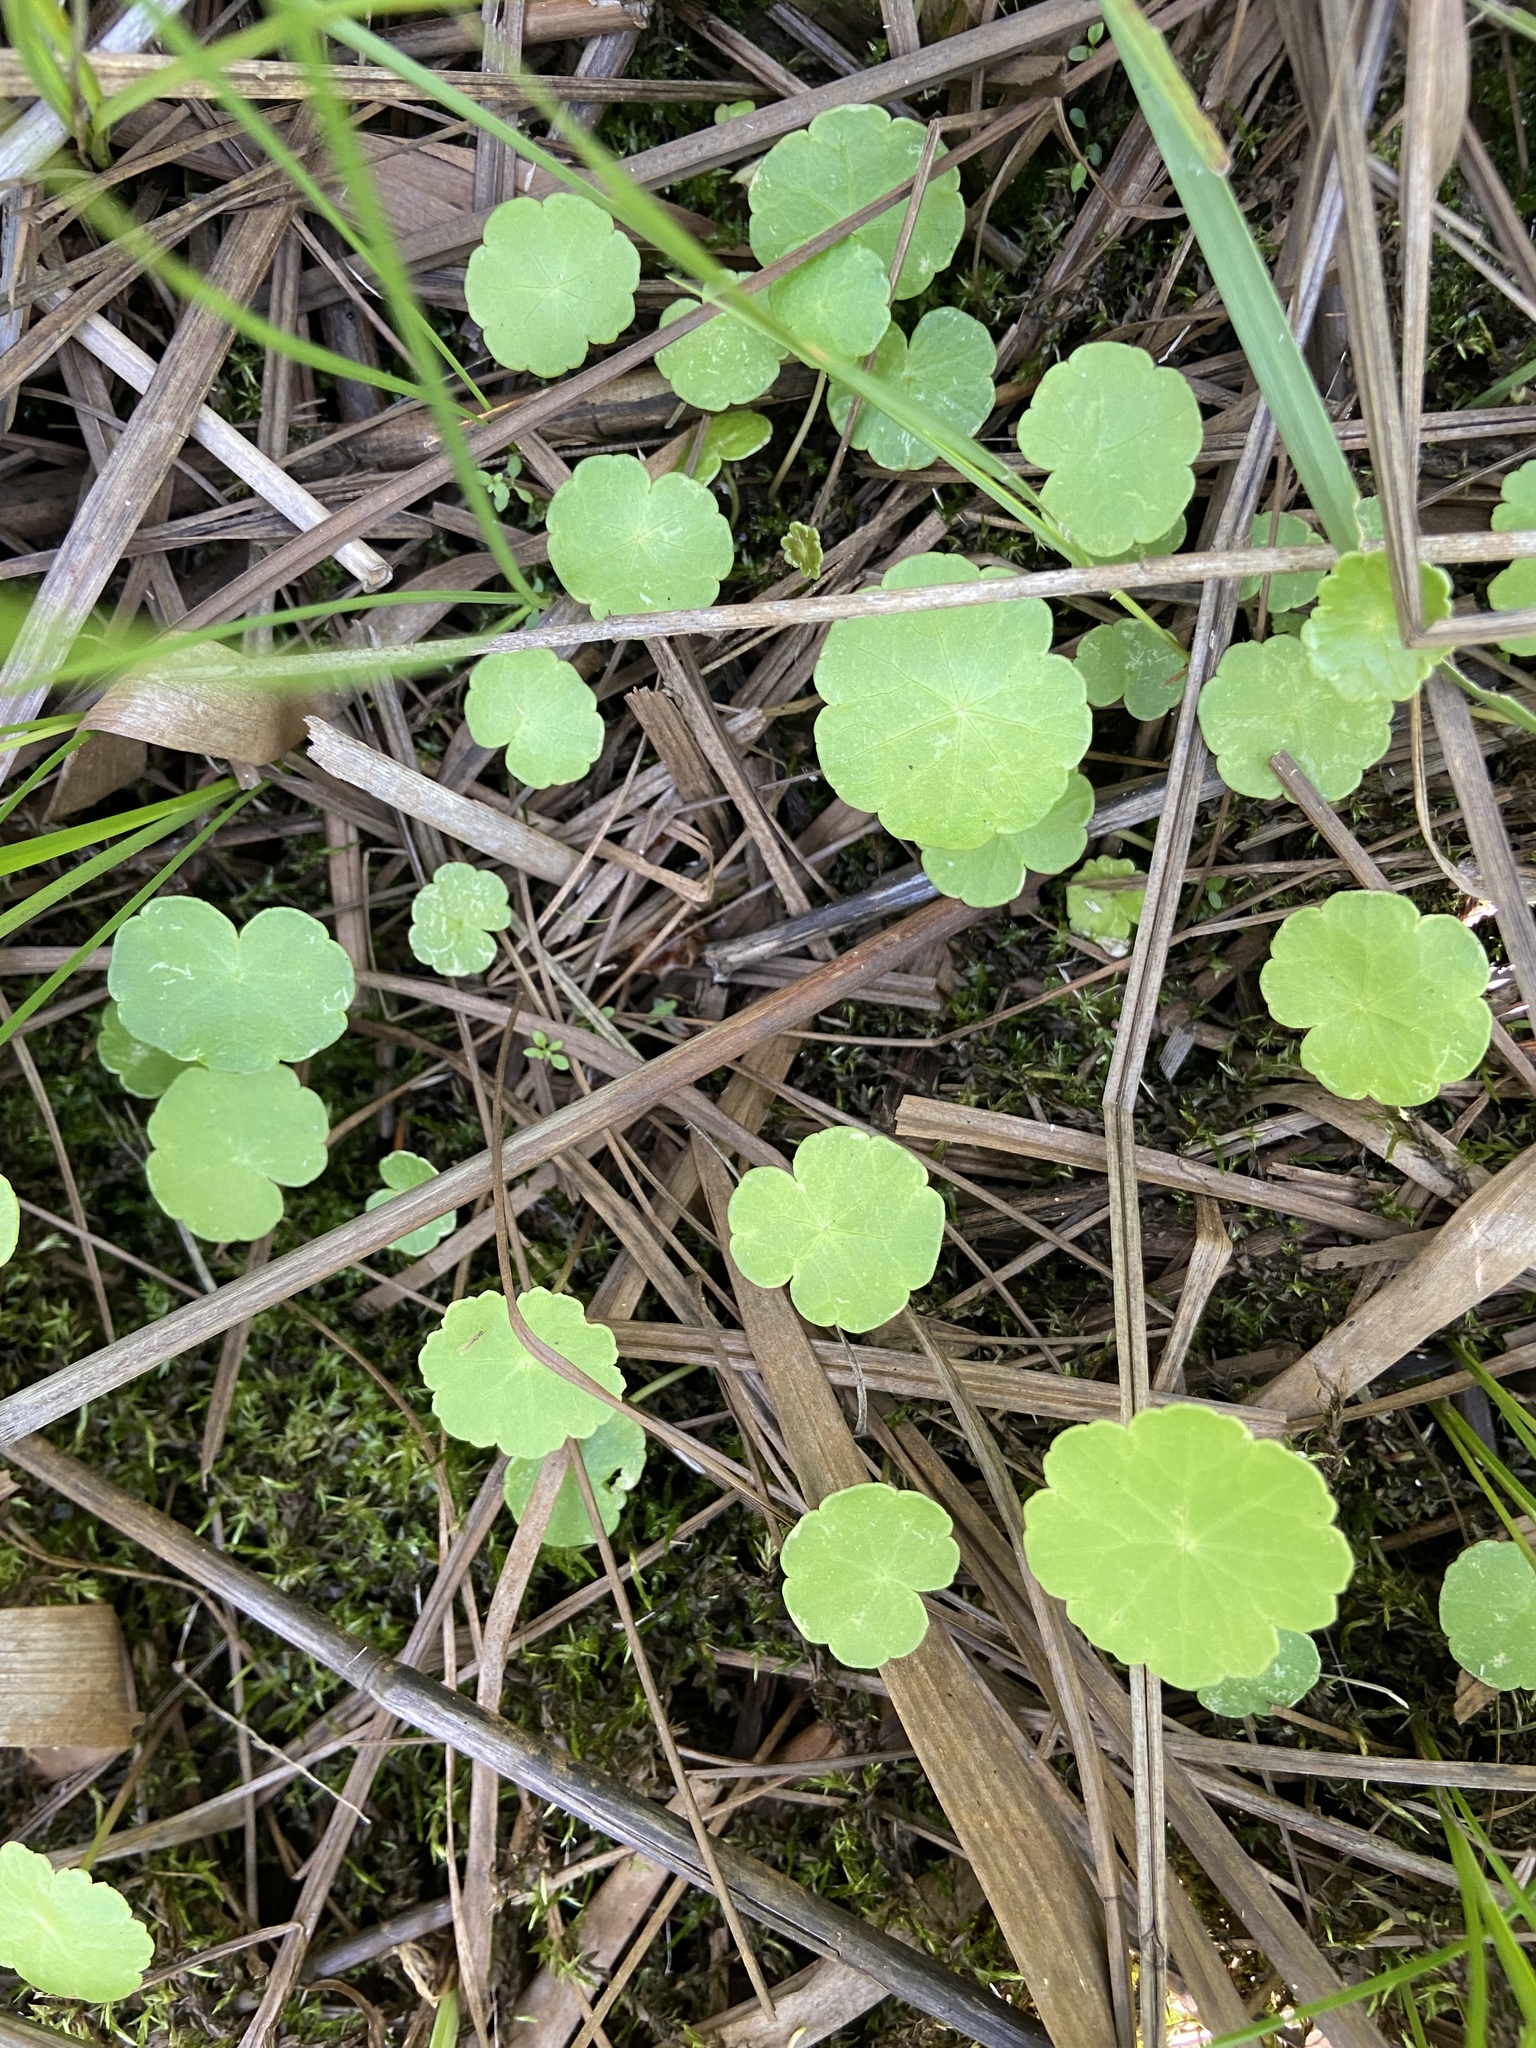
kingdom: Plantae
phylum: Tracheophyta
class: Magnoliopsida
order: Apiales
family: Araliaceae
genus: Hydrocotyle
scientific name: Hydrocotyle vulgaris
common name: Marsh pennywort
